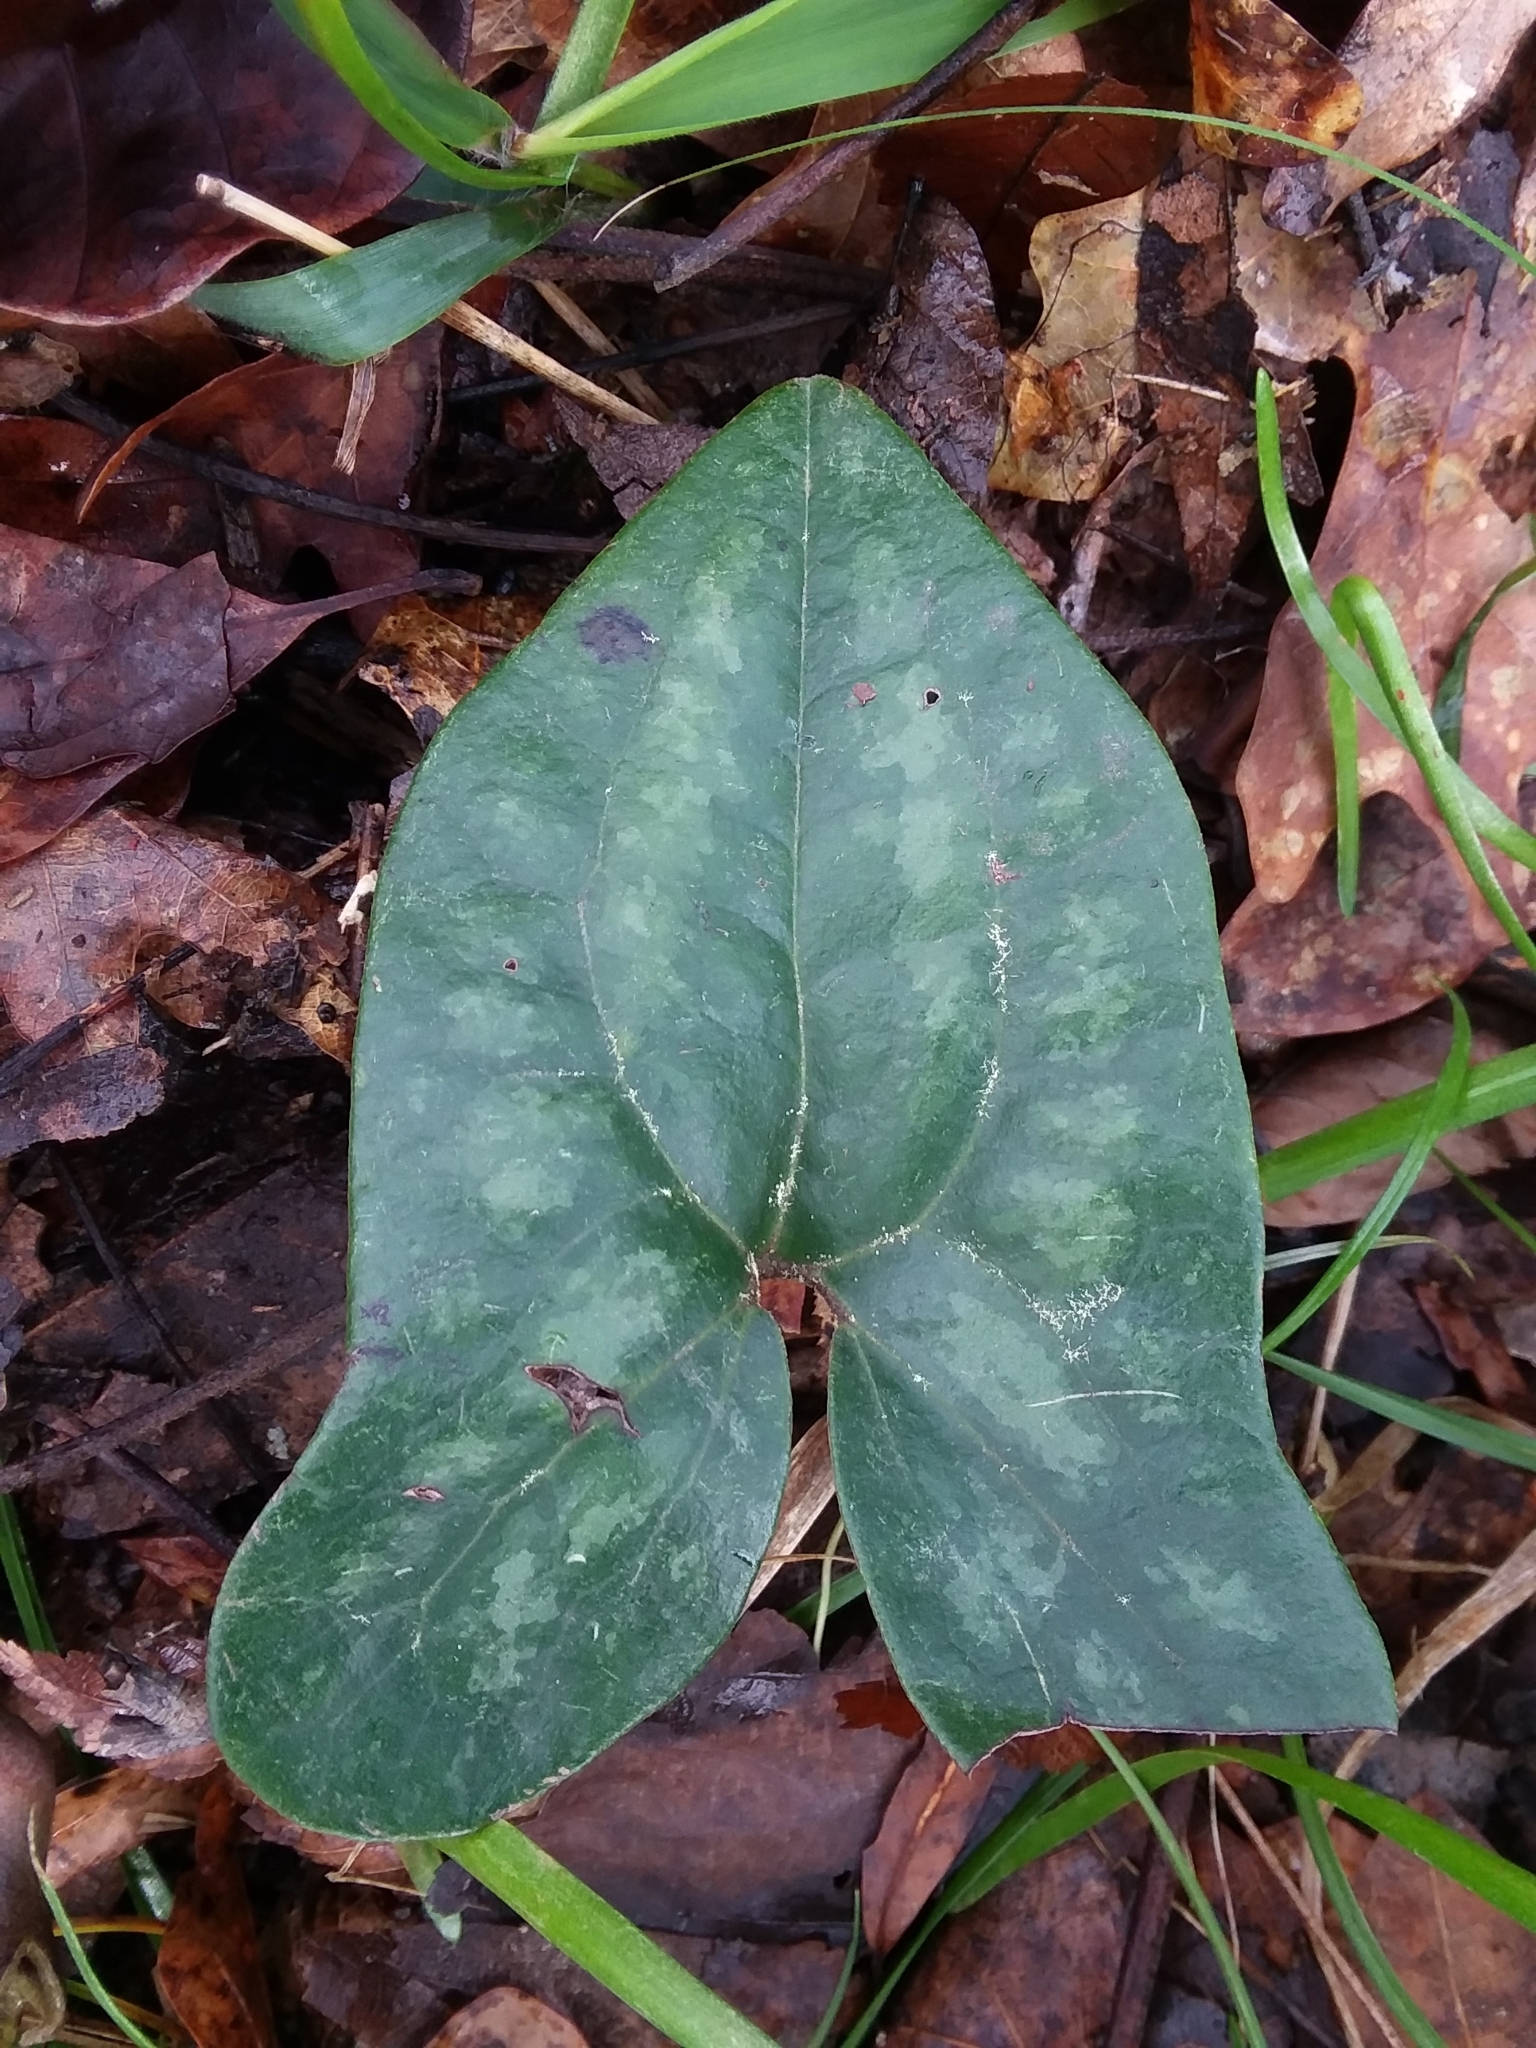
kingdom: Plantae
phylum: Tracheophyta
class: Magnoliopsida
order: Piperales
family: Aristolochiaceae
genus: Hexastylis
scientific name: Hexastylis arifolia
